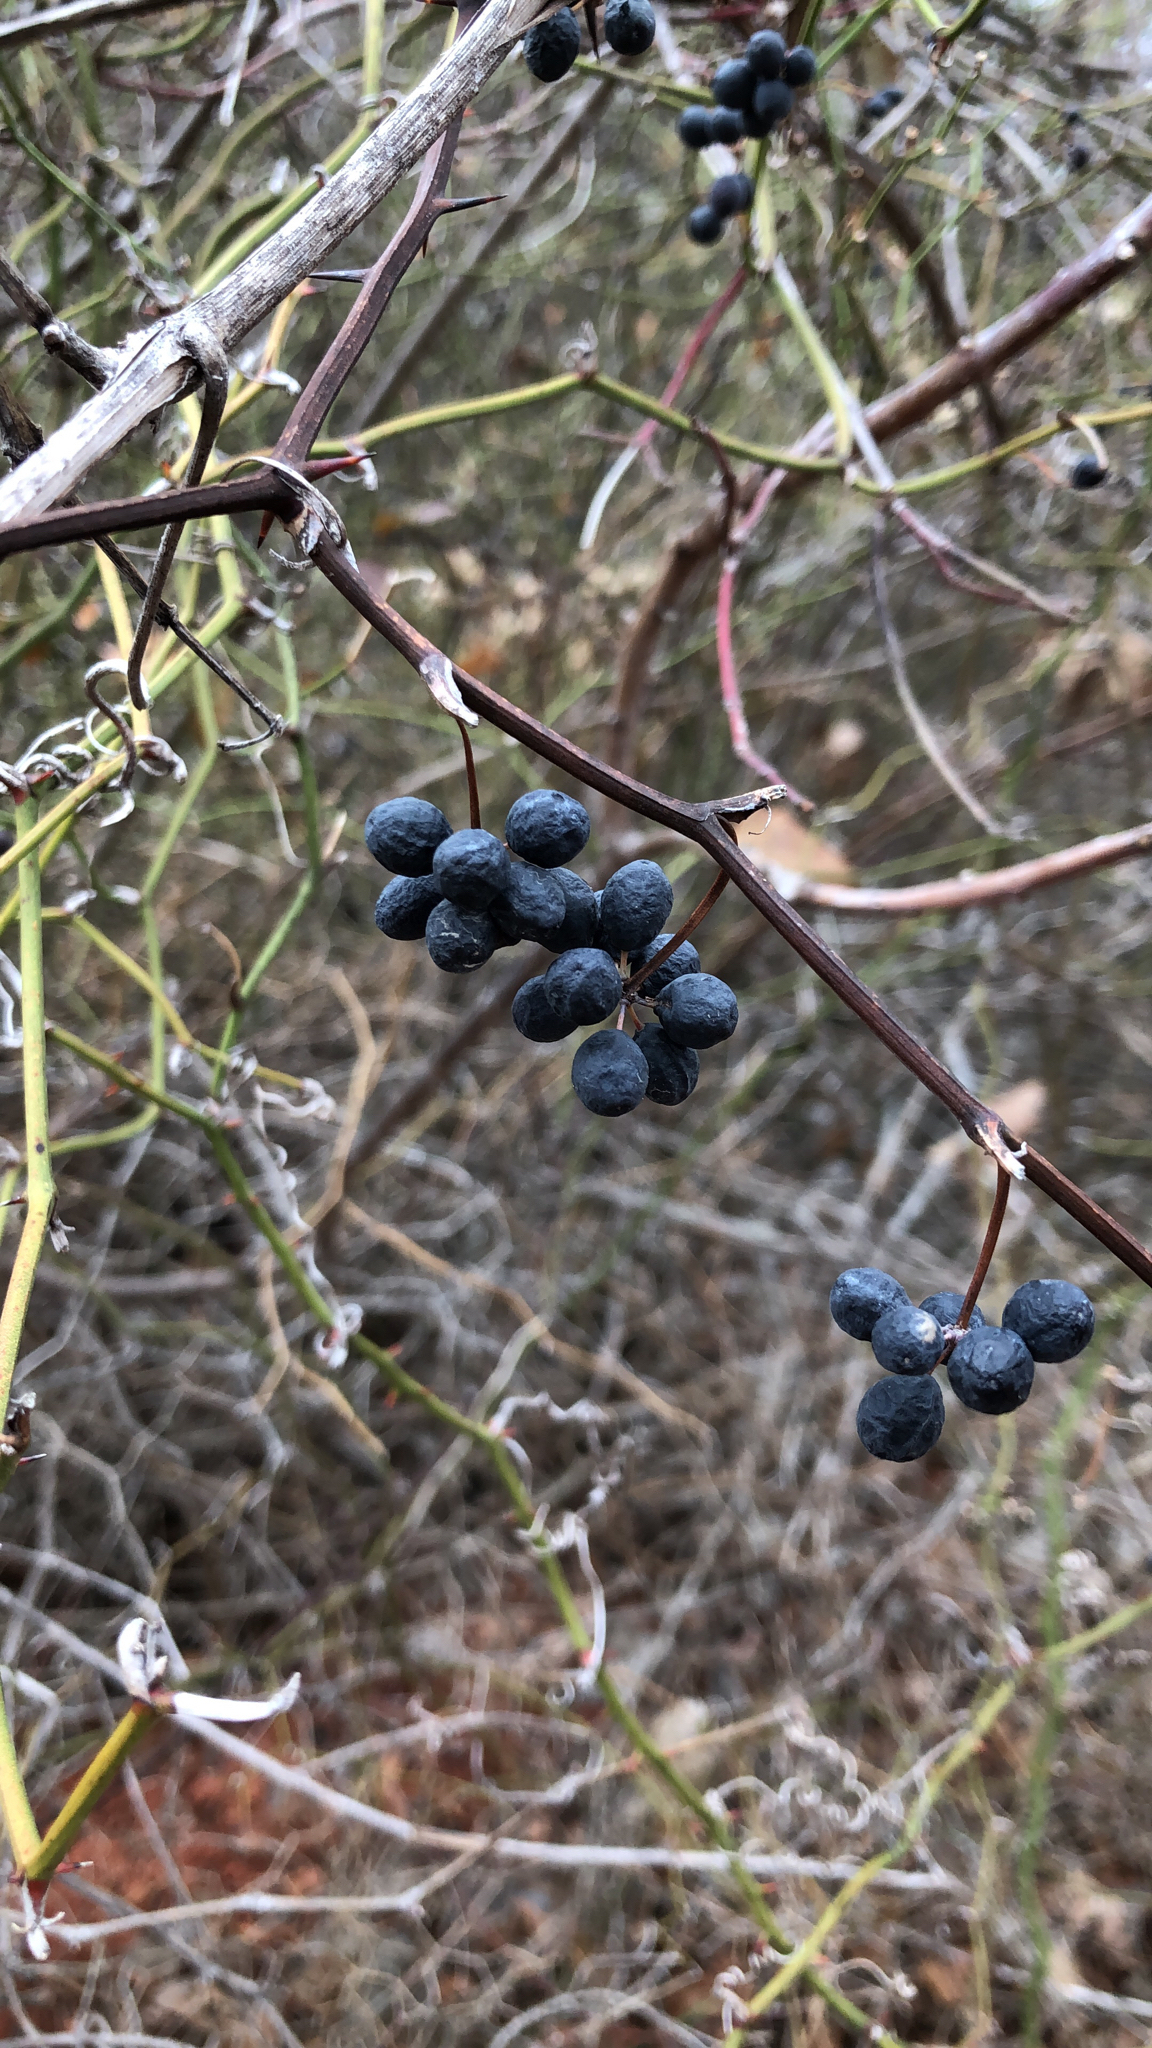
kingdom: Plantae
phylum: Tracheophyta
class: Liliopsida
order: Liliales
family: Smilacaceae
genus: Smilax
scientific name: Smilax bona-nox
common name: Catbrier
